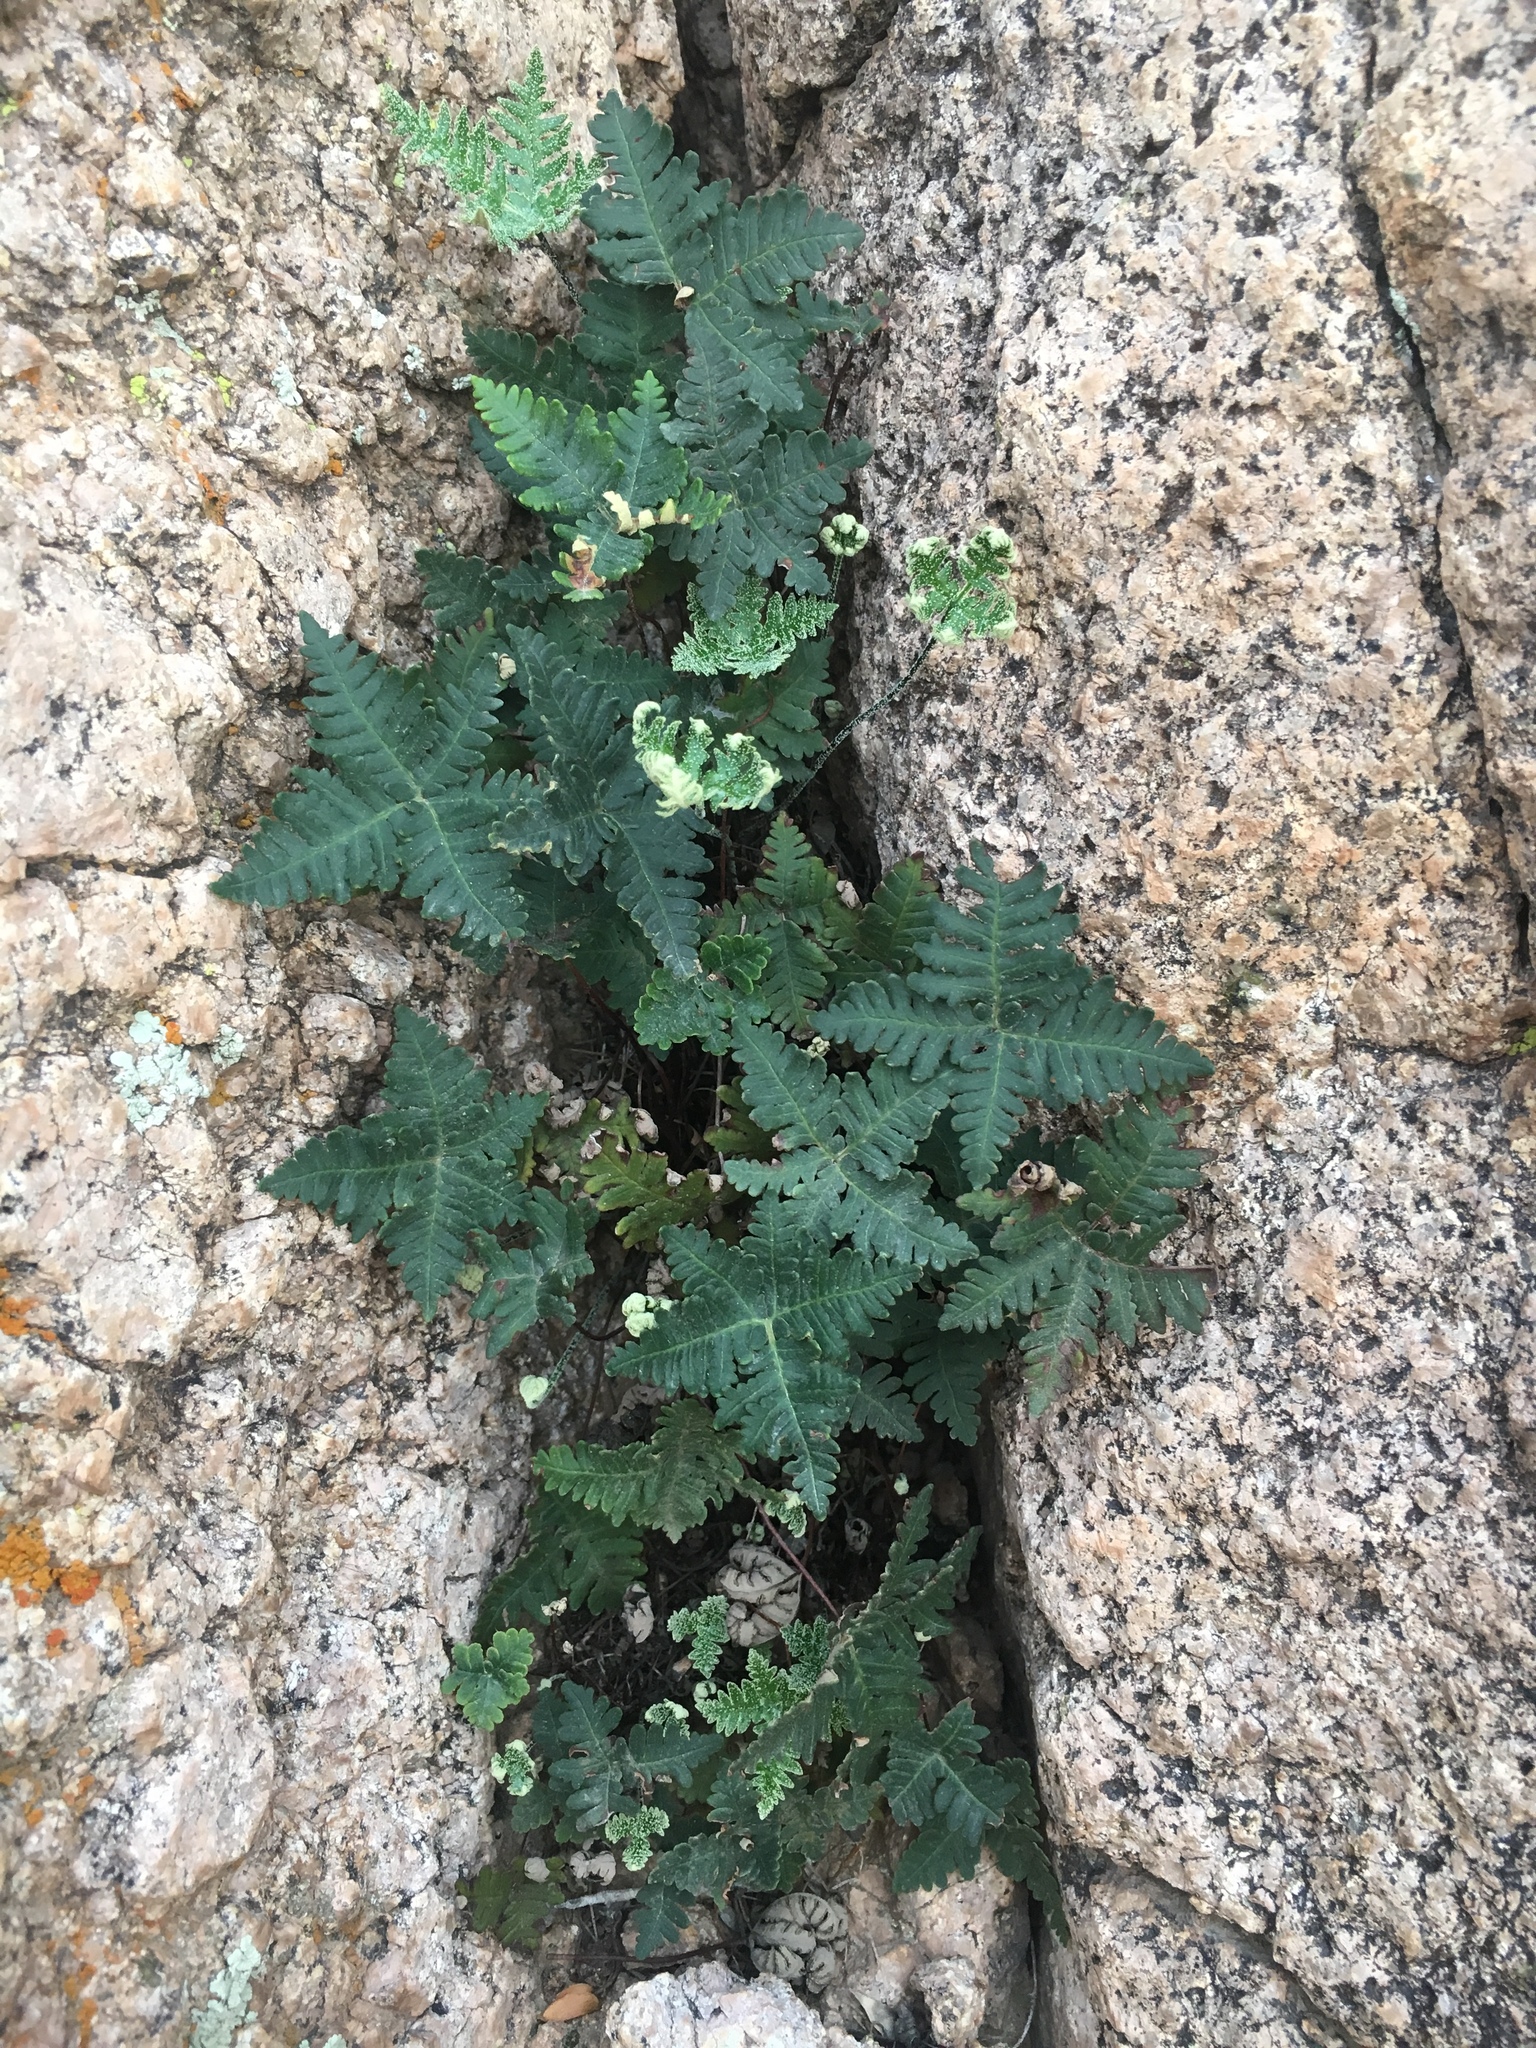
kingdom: Plantae
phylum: Tracheophyta
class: Polypodiopsida
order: Polypodiales
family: Pteridaceae
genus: Notholaena
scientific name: Notholaena standleyi
